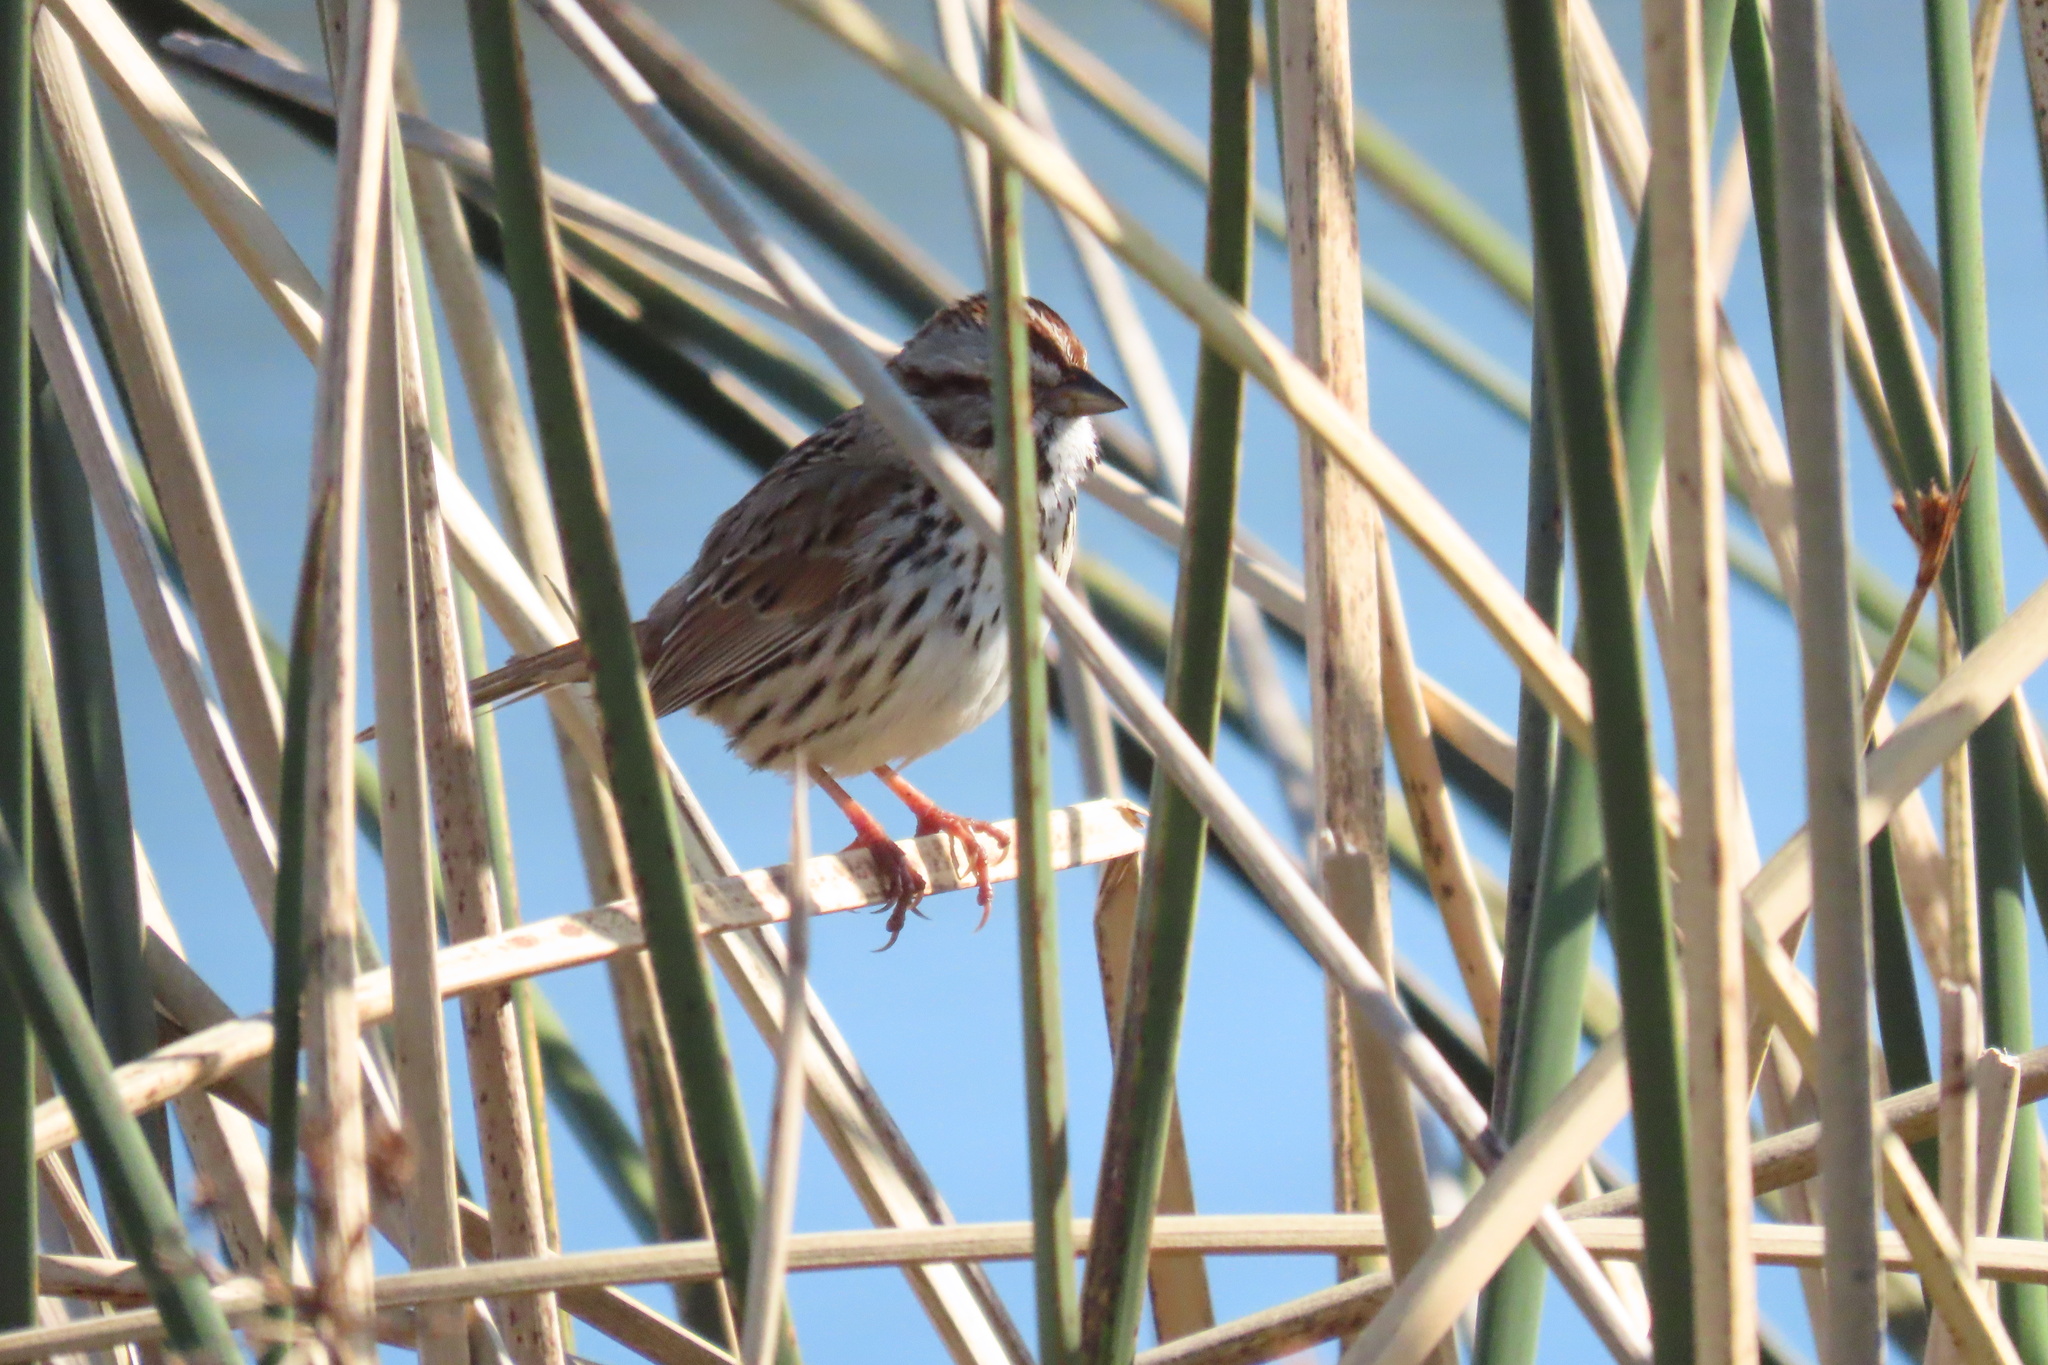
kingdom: Animalia
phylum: Chordata
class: Aves
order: Passeriformes
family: Passerellidae
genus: Melospiza
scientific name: Melospiza melodia
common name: Song sparrow
